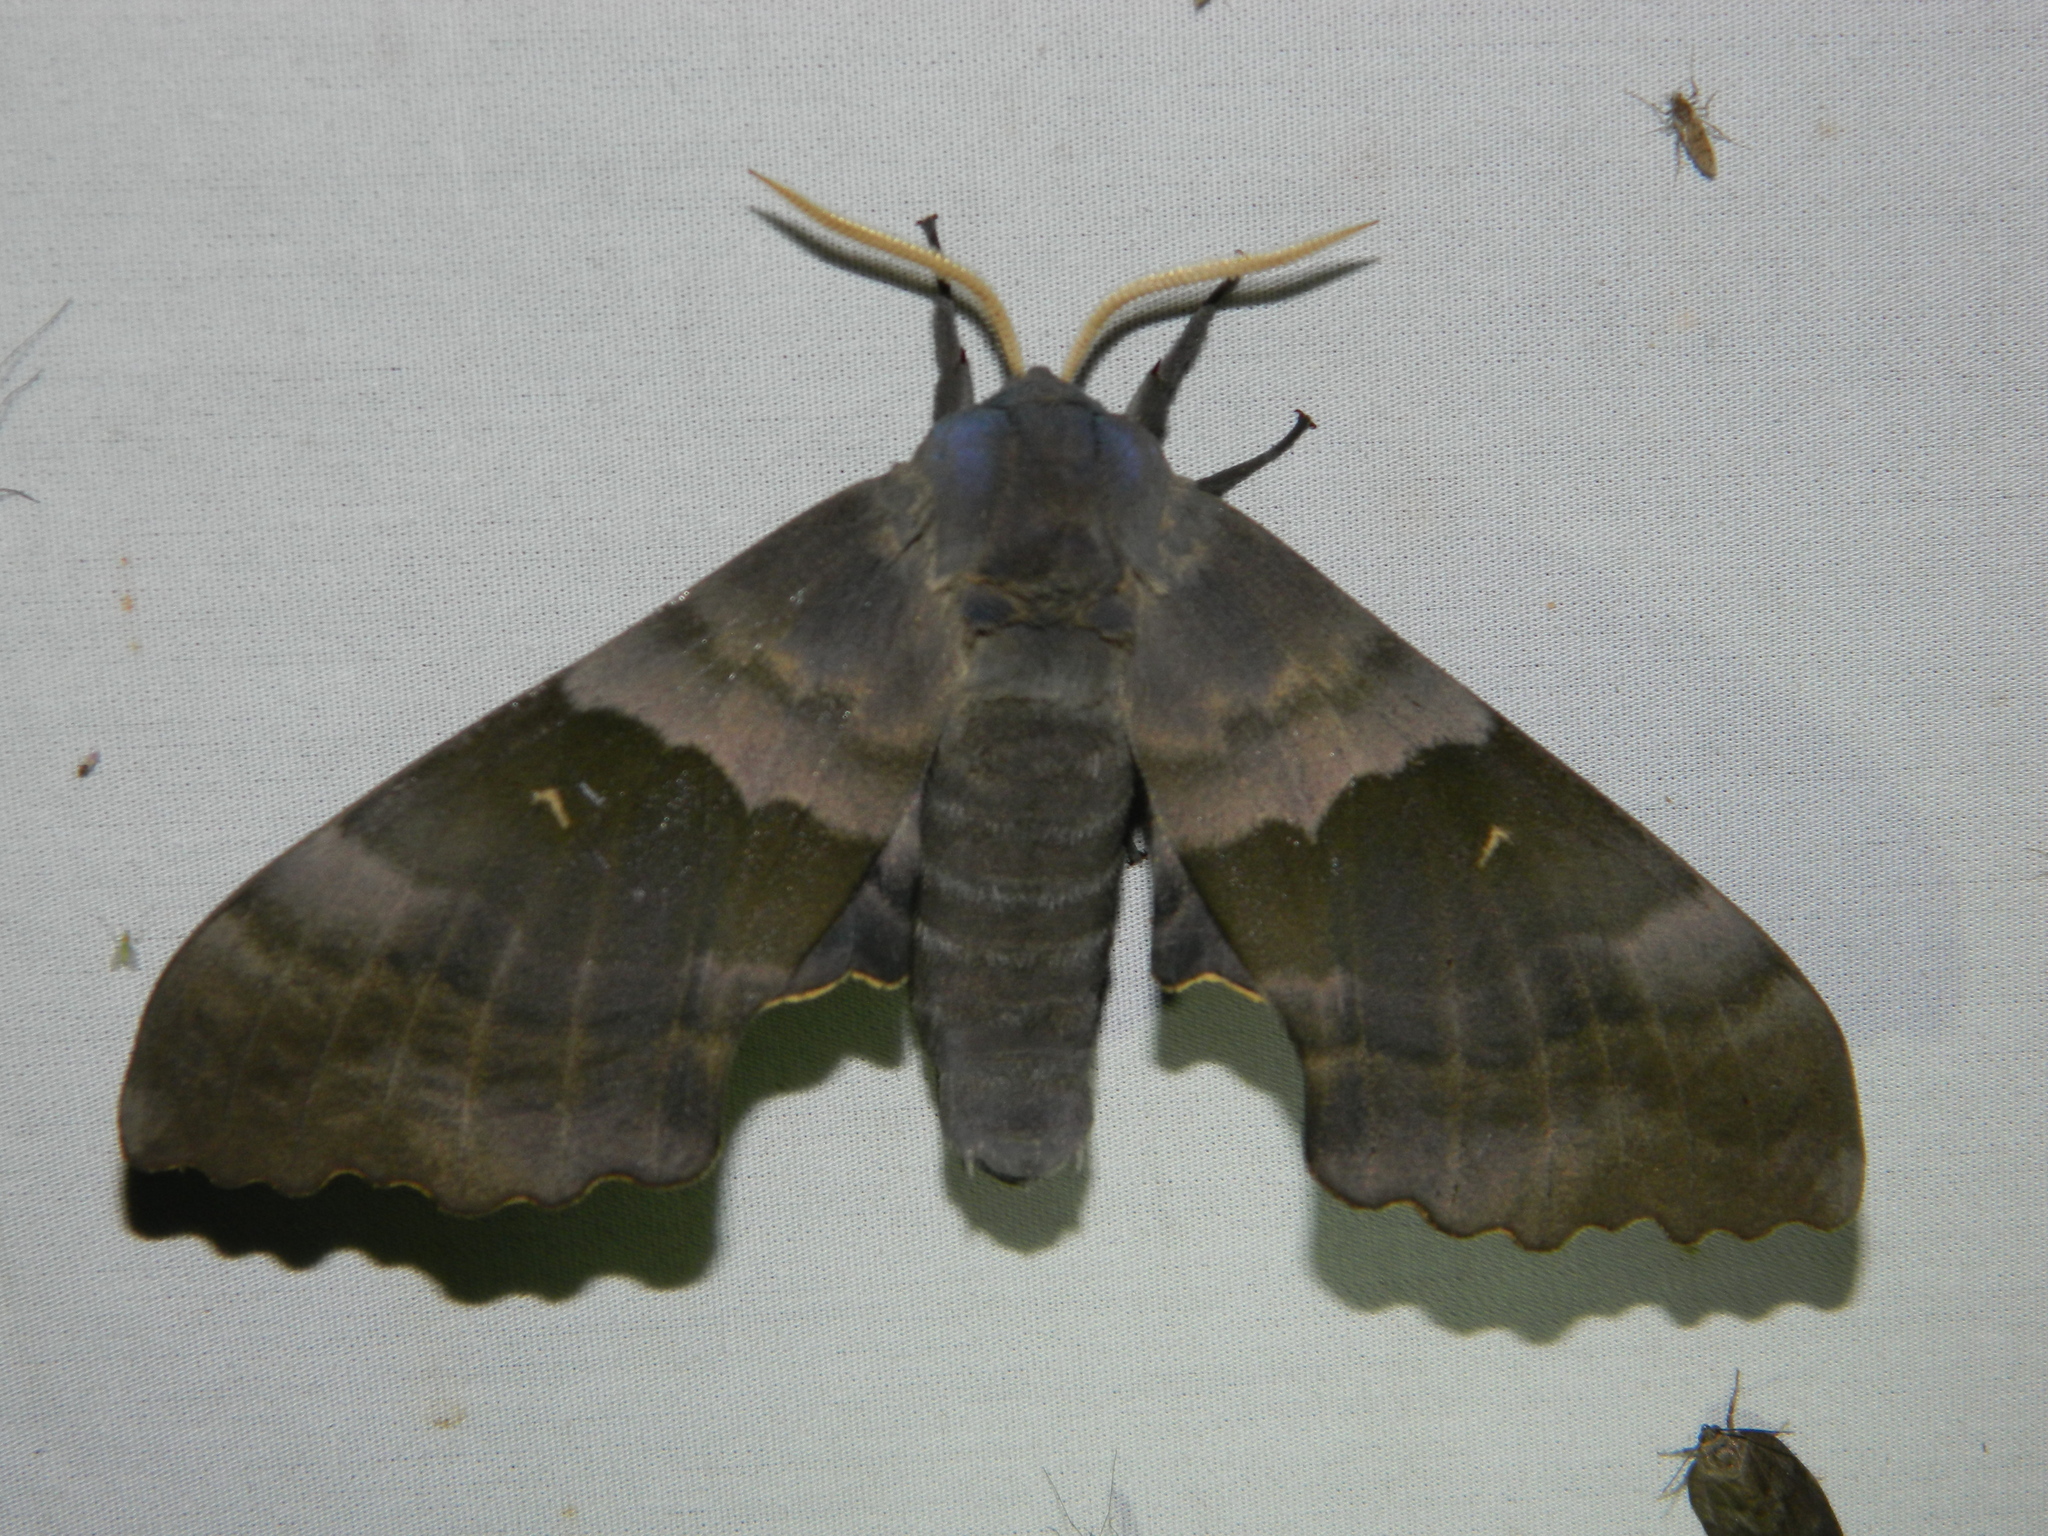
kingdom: Animalia
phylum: Arthropoda
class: Insecta
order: Lepidoptera
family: Sphingidae
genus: Pachysphinx
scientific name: Pachysphinx modesta
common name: Big poplar sphinx
